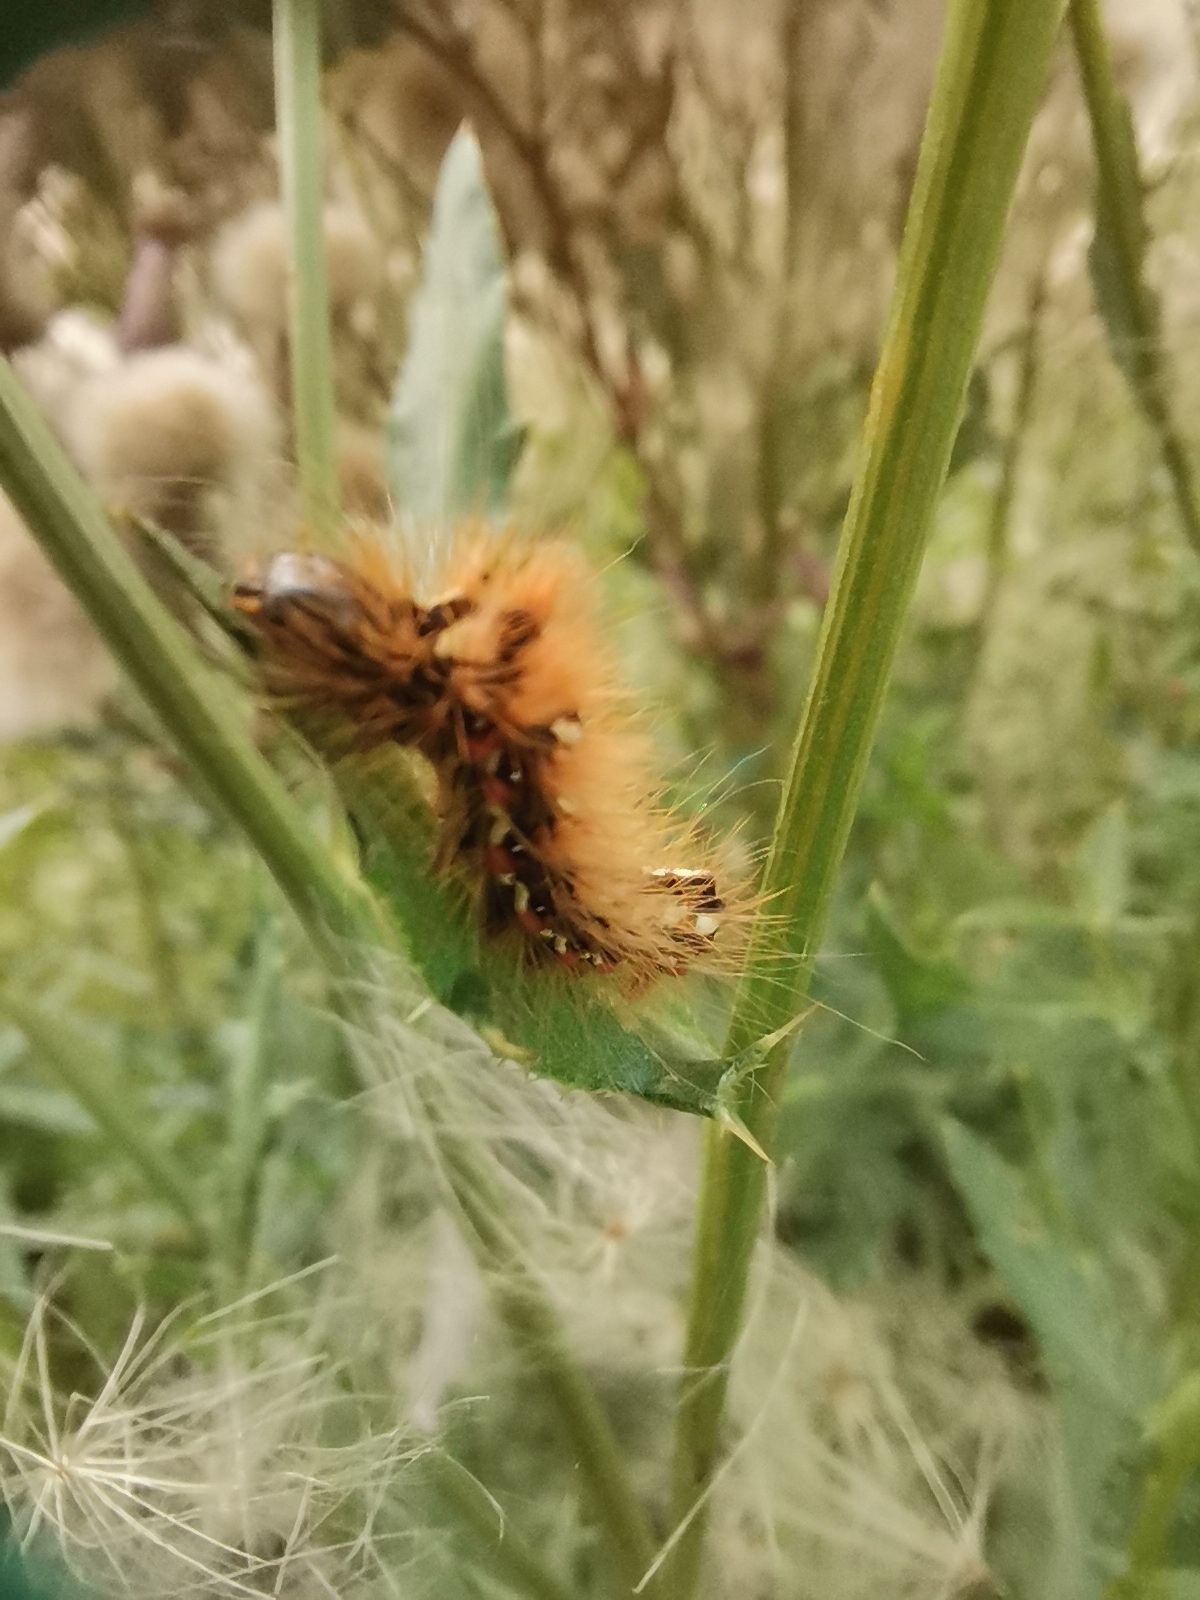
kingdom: Animalia
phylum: Arthropoda
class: Insecta
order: Lepidoptera
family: Noctuidae
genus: Acronicta
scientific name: Acronicta rumicis
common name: Knot grass
